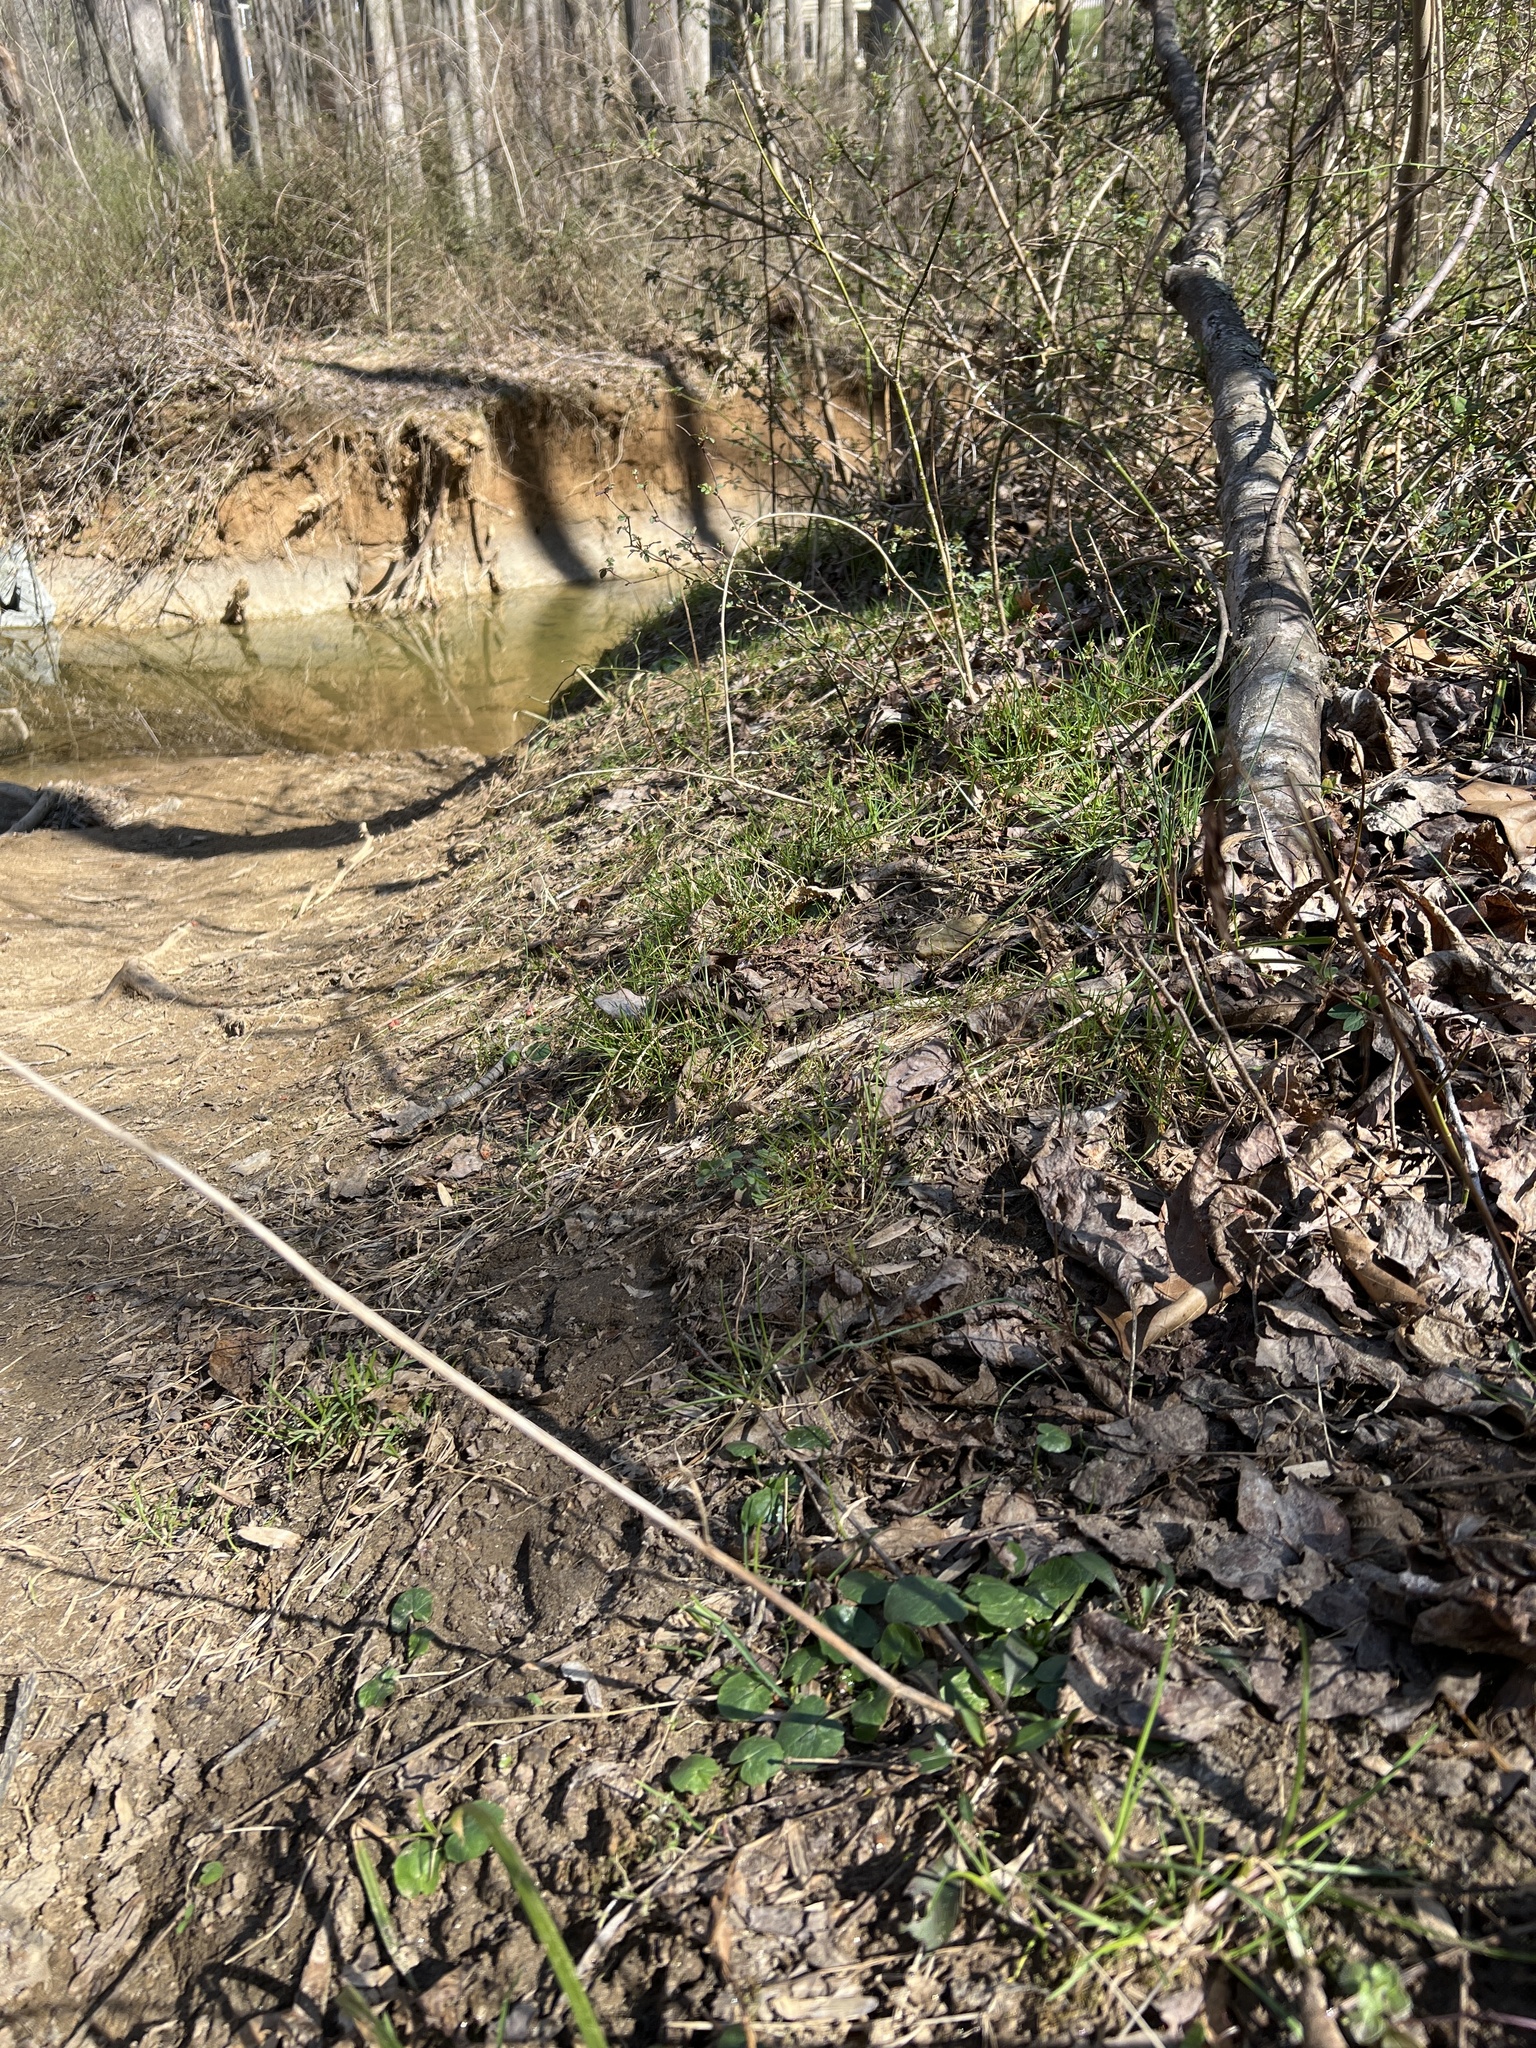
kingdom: Plantae
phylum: Tracheophyta
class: Magnoliopsida
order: Ranunculales
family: Ranunculaceae
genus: Ficaria
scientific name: Ficaria verna
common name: Lesser celandine
